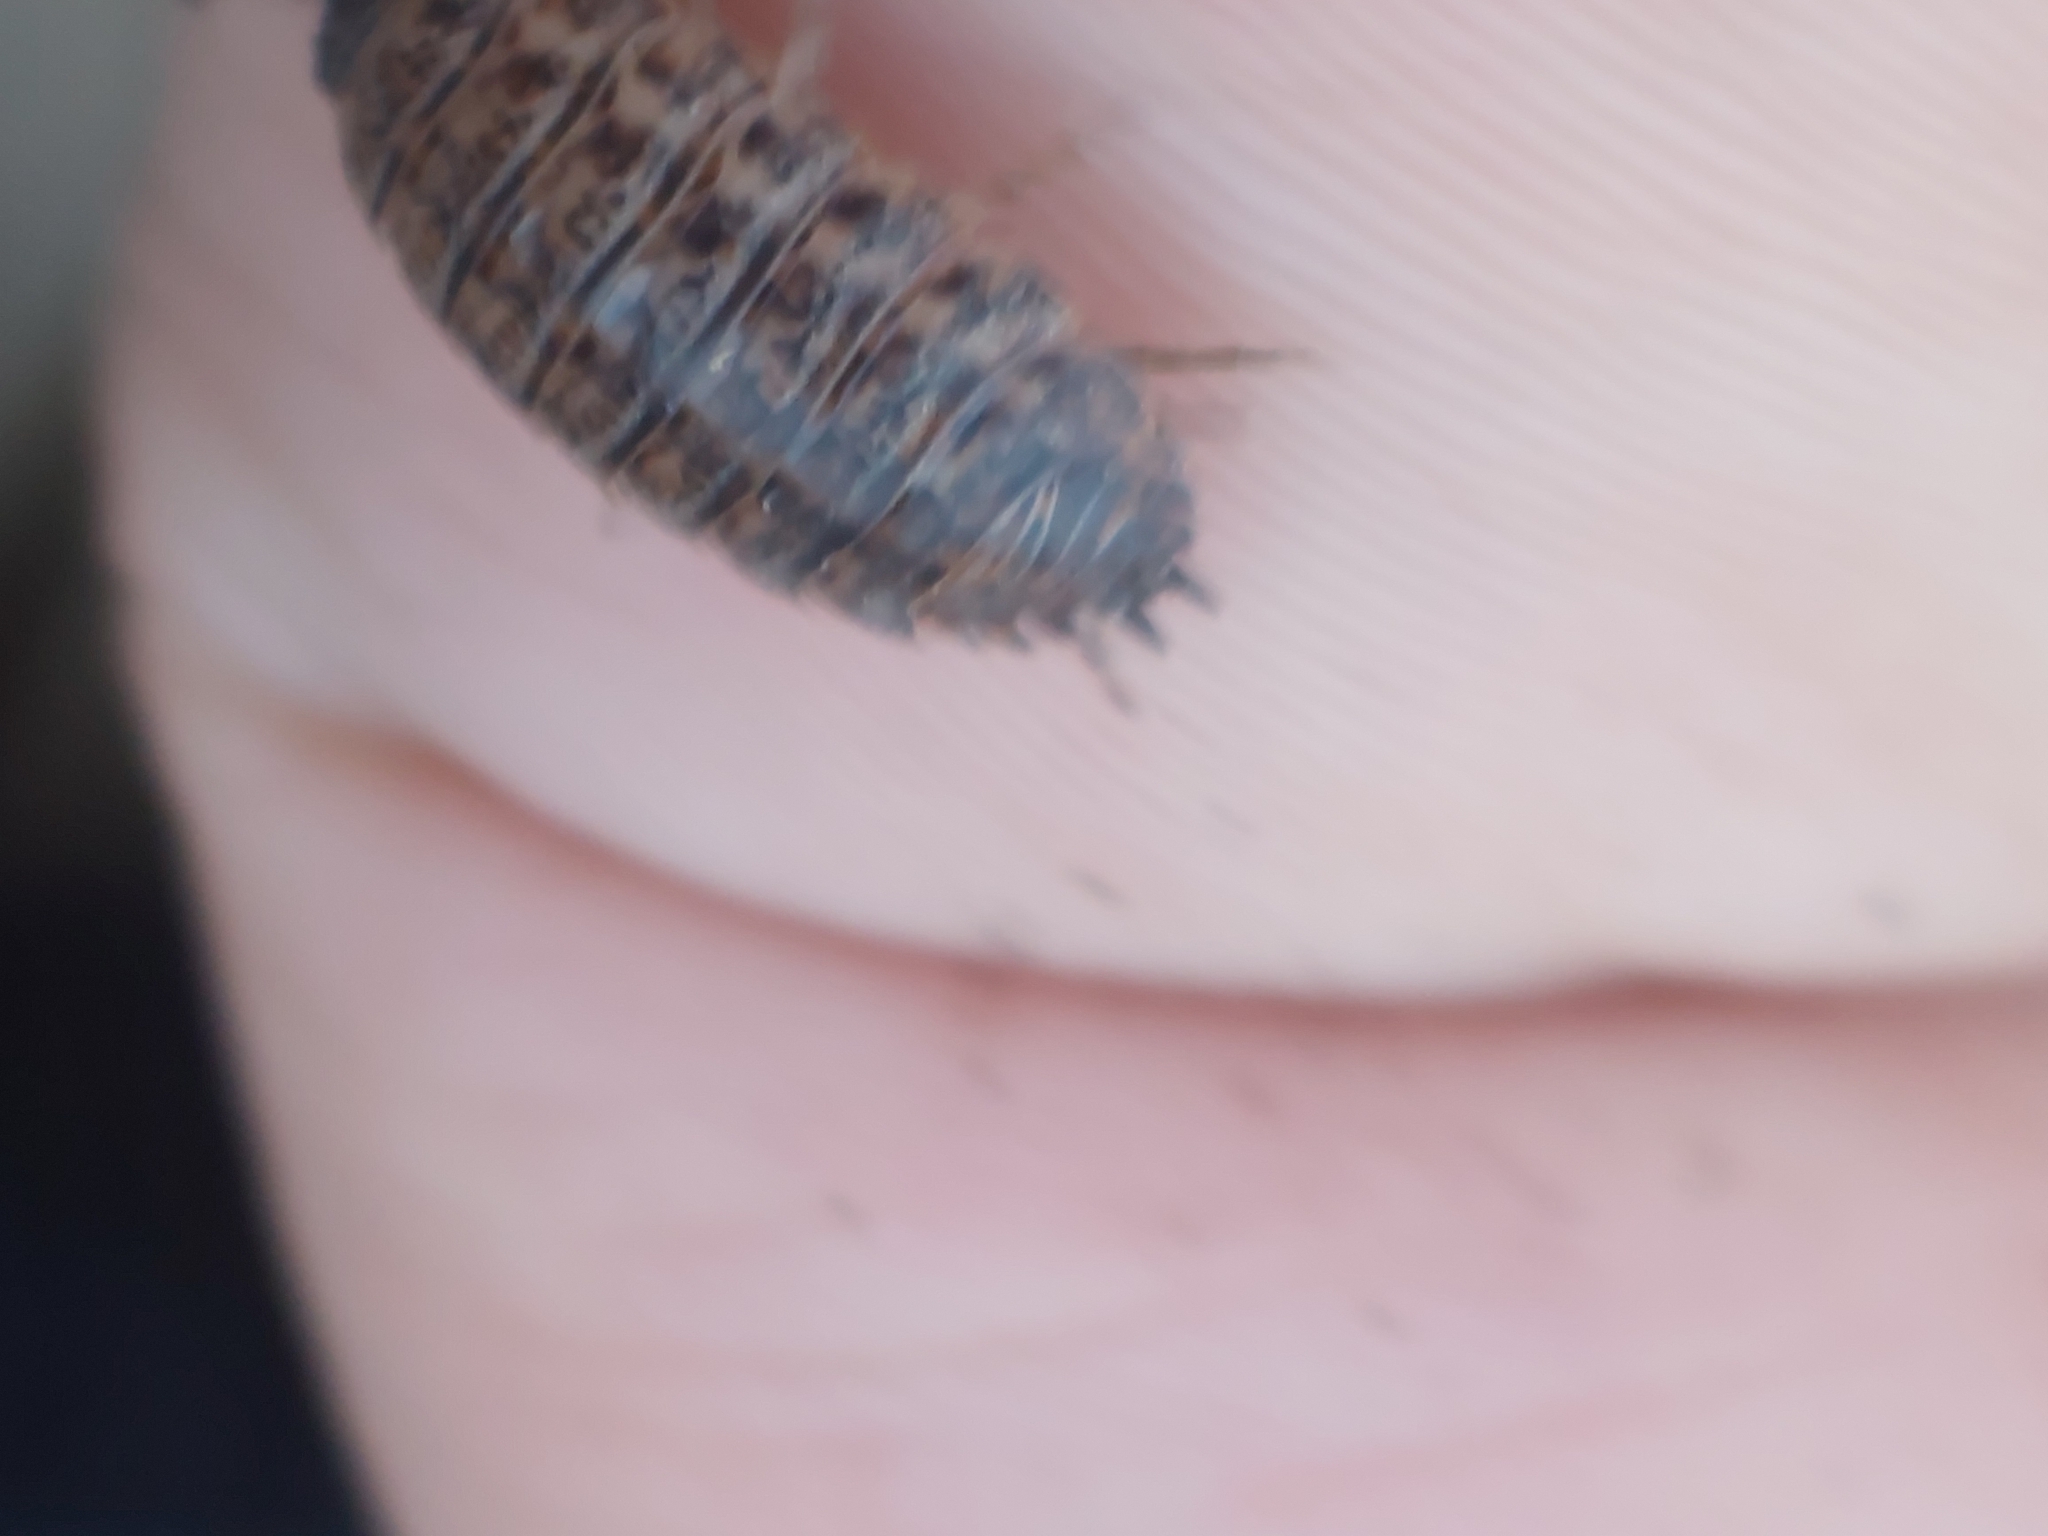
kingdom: Animalia
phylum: Arthropoda
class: Malacostraca
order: Isopoda
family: Trachelipodidae
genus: Trachelipus
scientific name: Trachelipus rathkii
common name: Isopod
